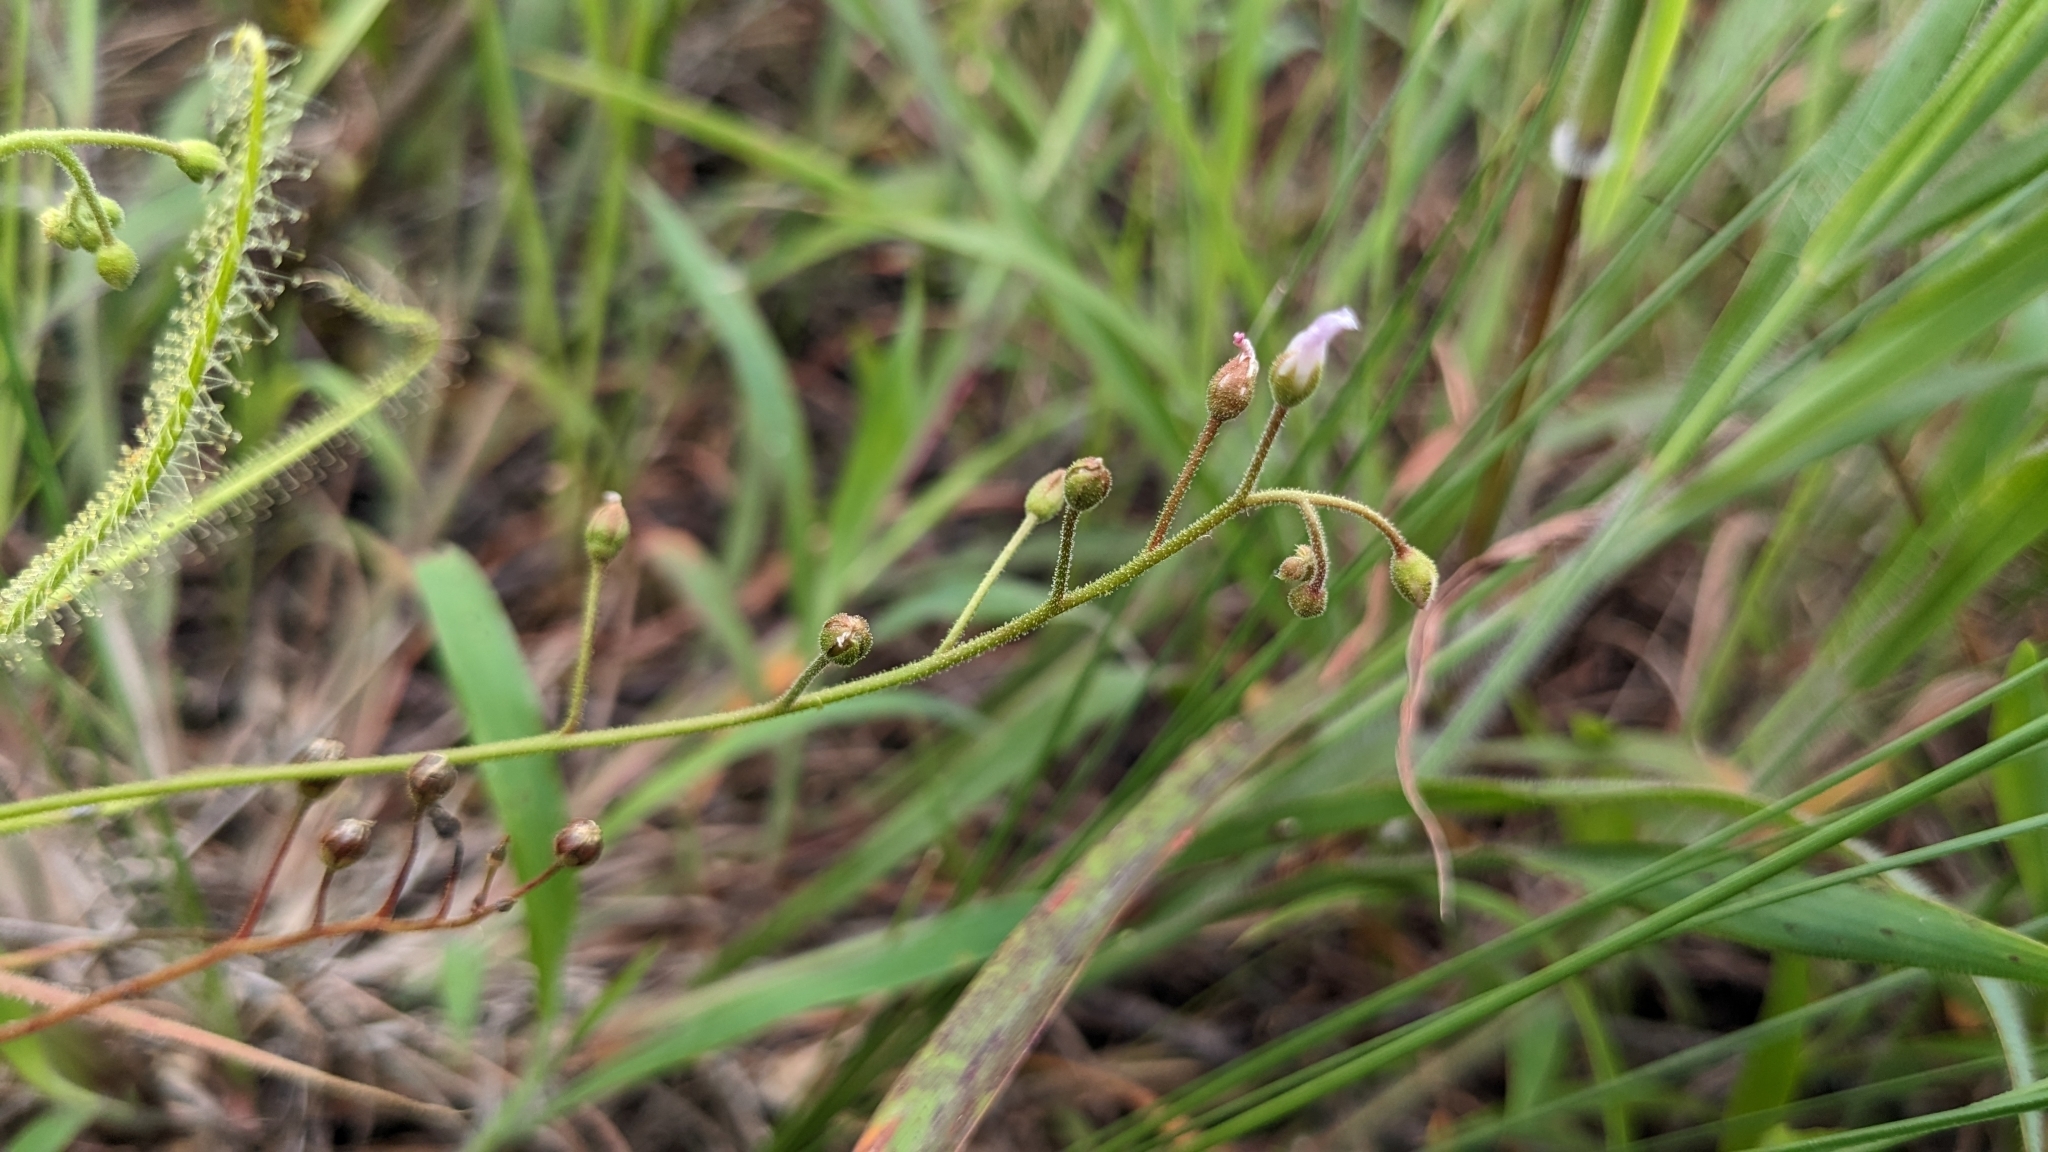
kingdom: Plantae
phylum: Tracheophyta
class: Magnoliopsida
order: Caryophyllales
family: Droseraceae
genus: Drosera
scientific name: Drosera finlaysoniana
